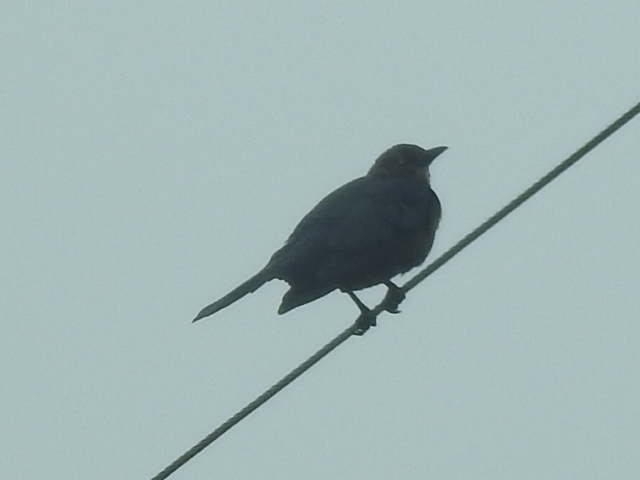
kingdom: Animalia
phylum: Chordata
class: Aves
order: Passeriformes
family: Icteridae
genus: Quiscalus
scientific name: Quiscalus mexicanus
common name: Great-tailed grackle
